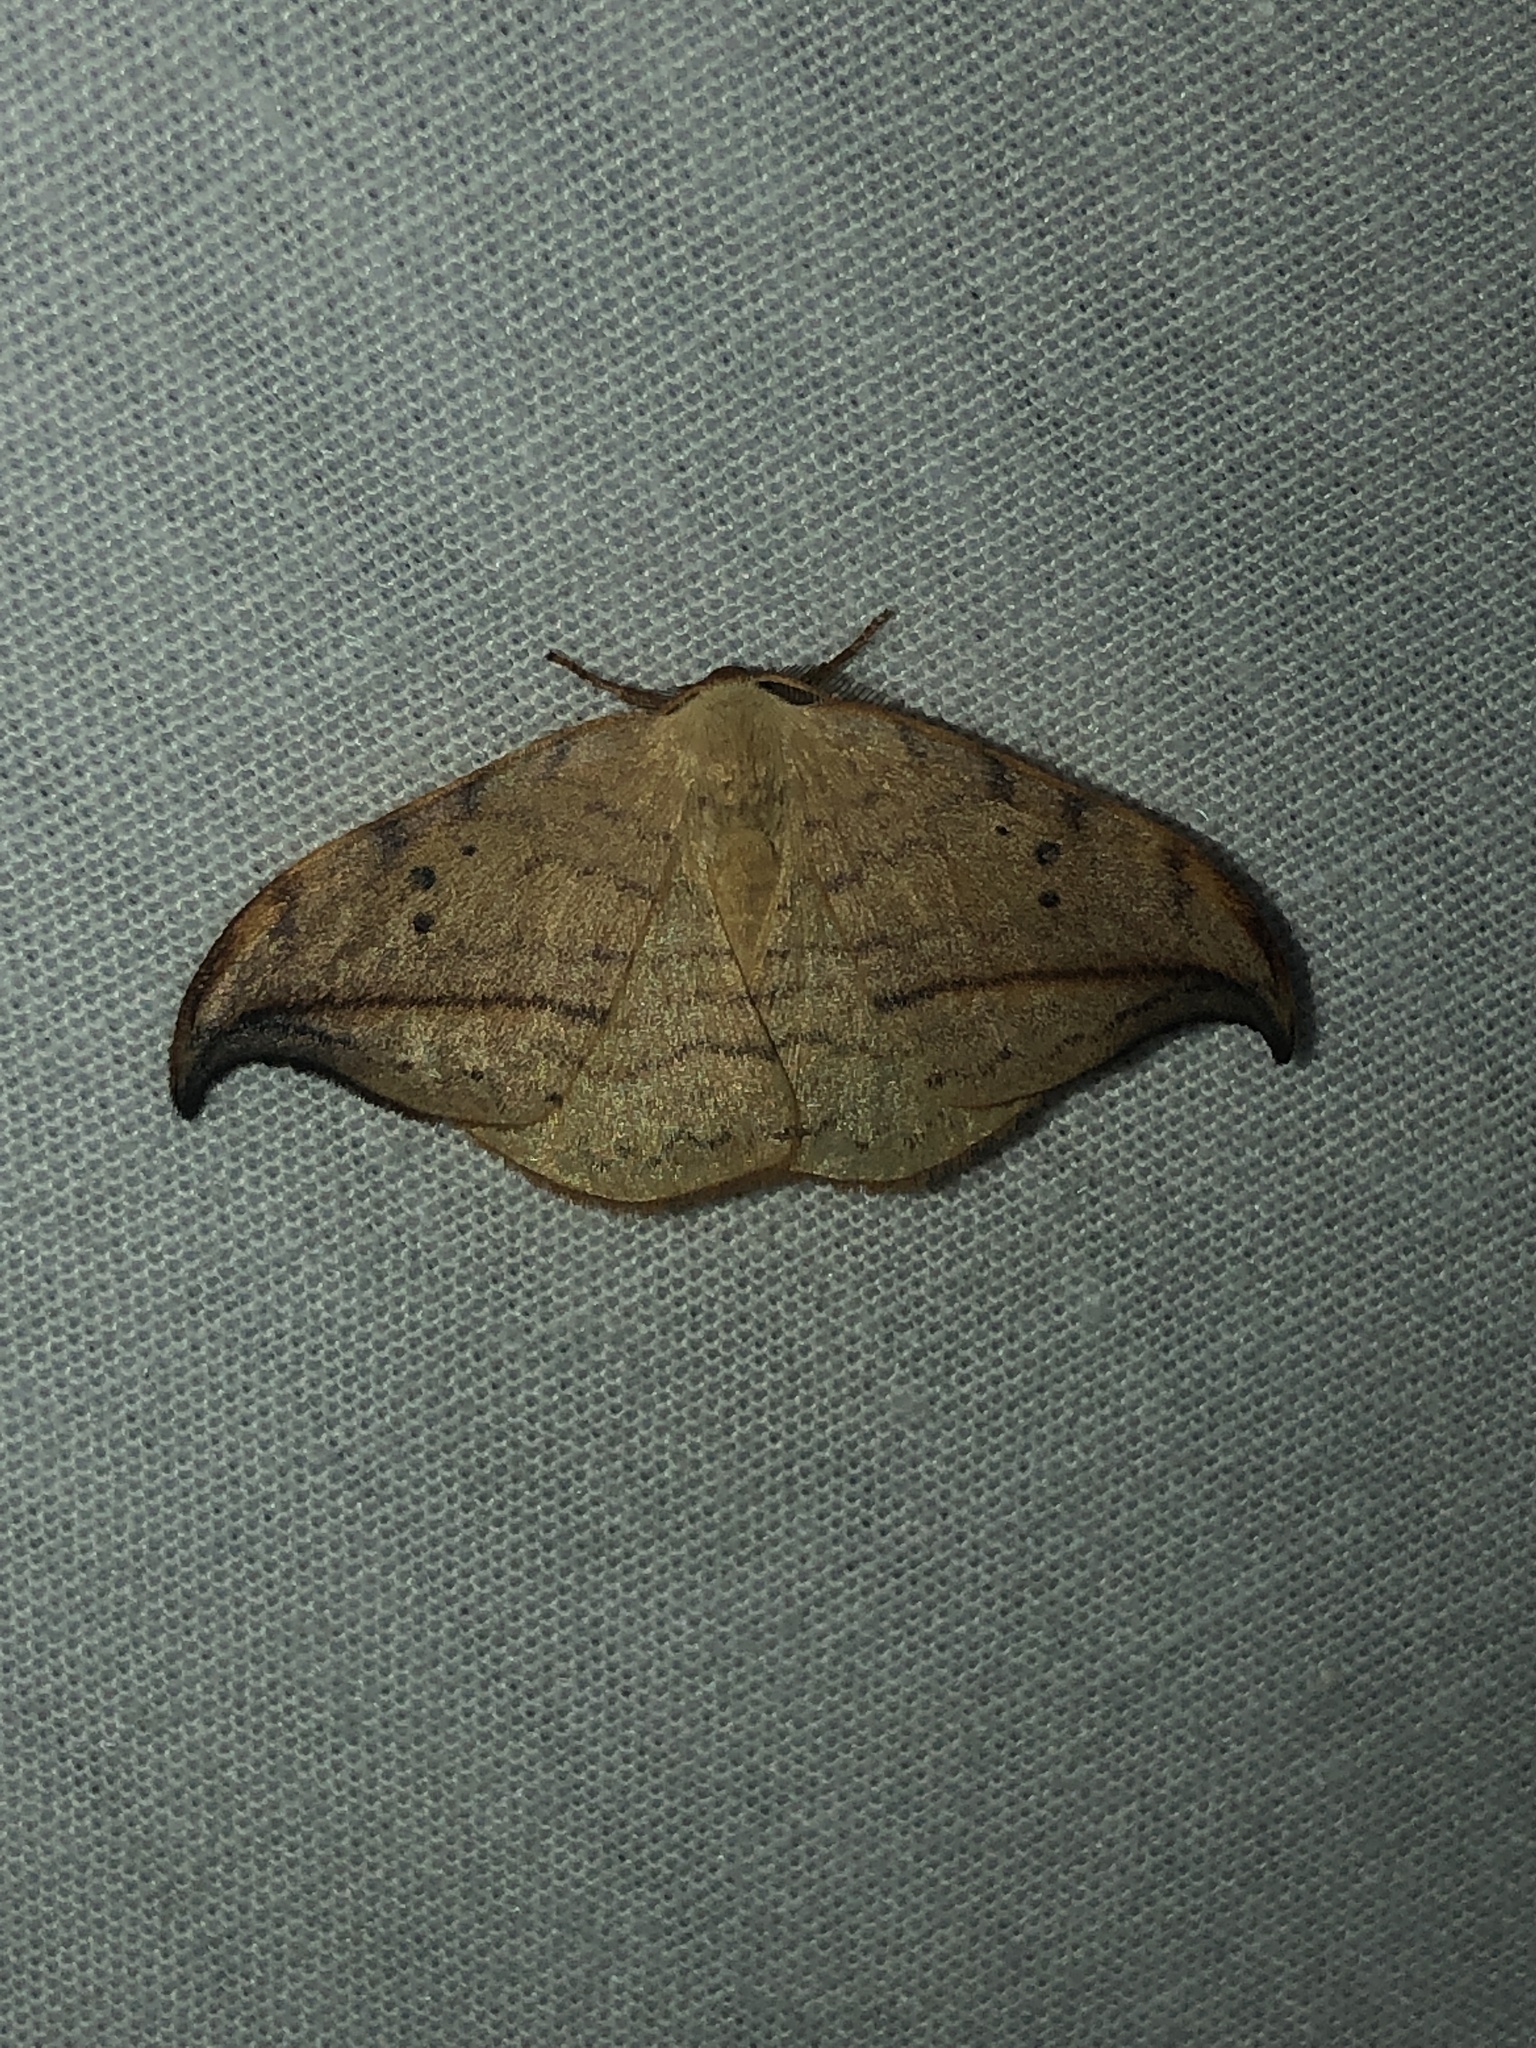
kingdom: Animalia
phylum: Arthropoda
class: Insecta
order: Lepidoptera
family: Drepanidae
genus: Drepana
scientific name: Drepana arcuata
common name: Arched hooktip moth
